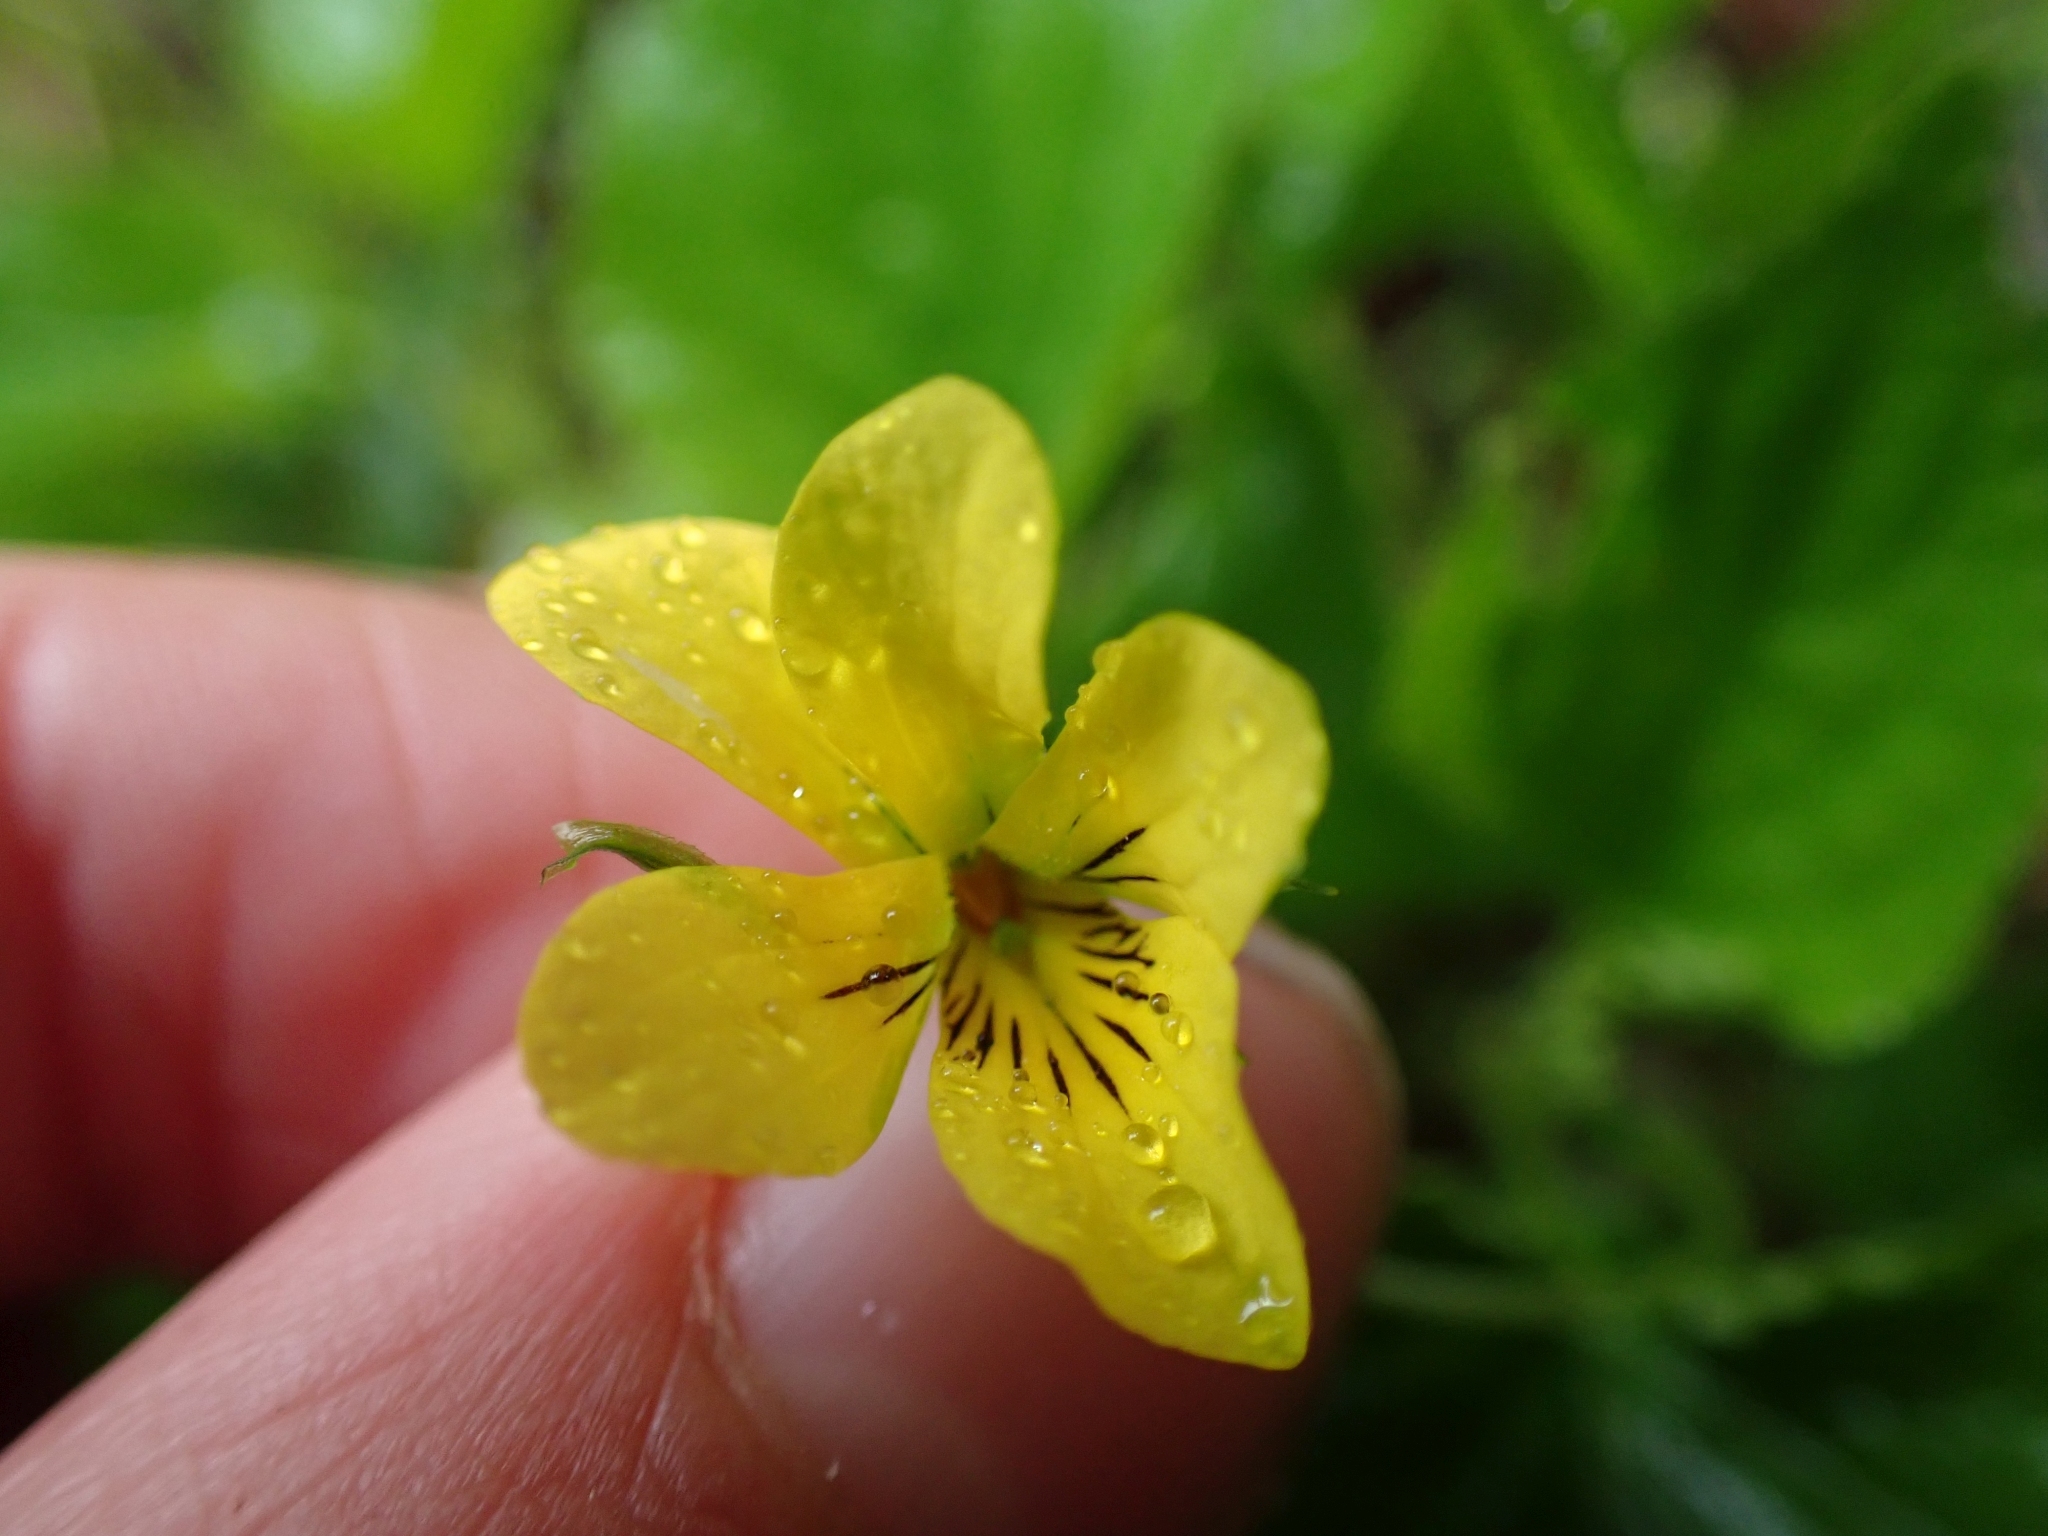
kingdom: Plantae
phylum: Tracheophyta
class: Magnoliopsida
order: Malpighiales
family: Violaceae
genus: Viola
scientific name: Viola glabella
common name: Stream violet
